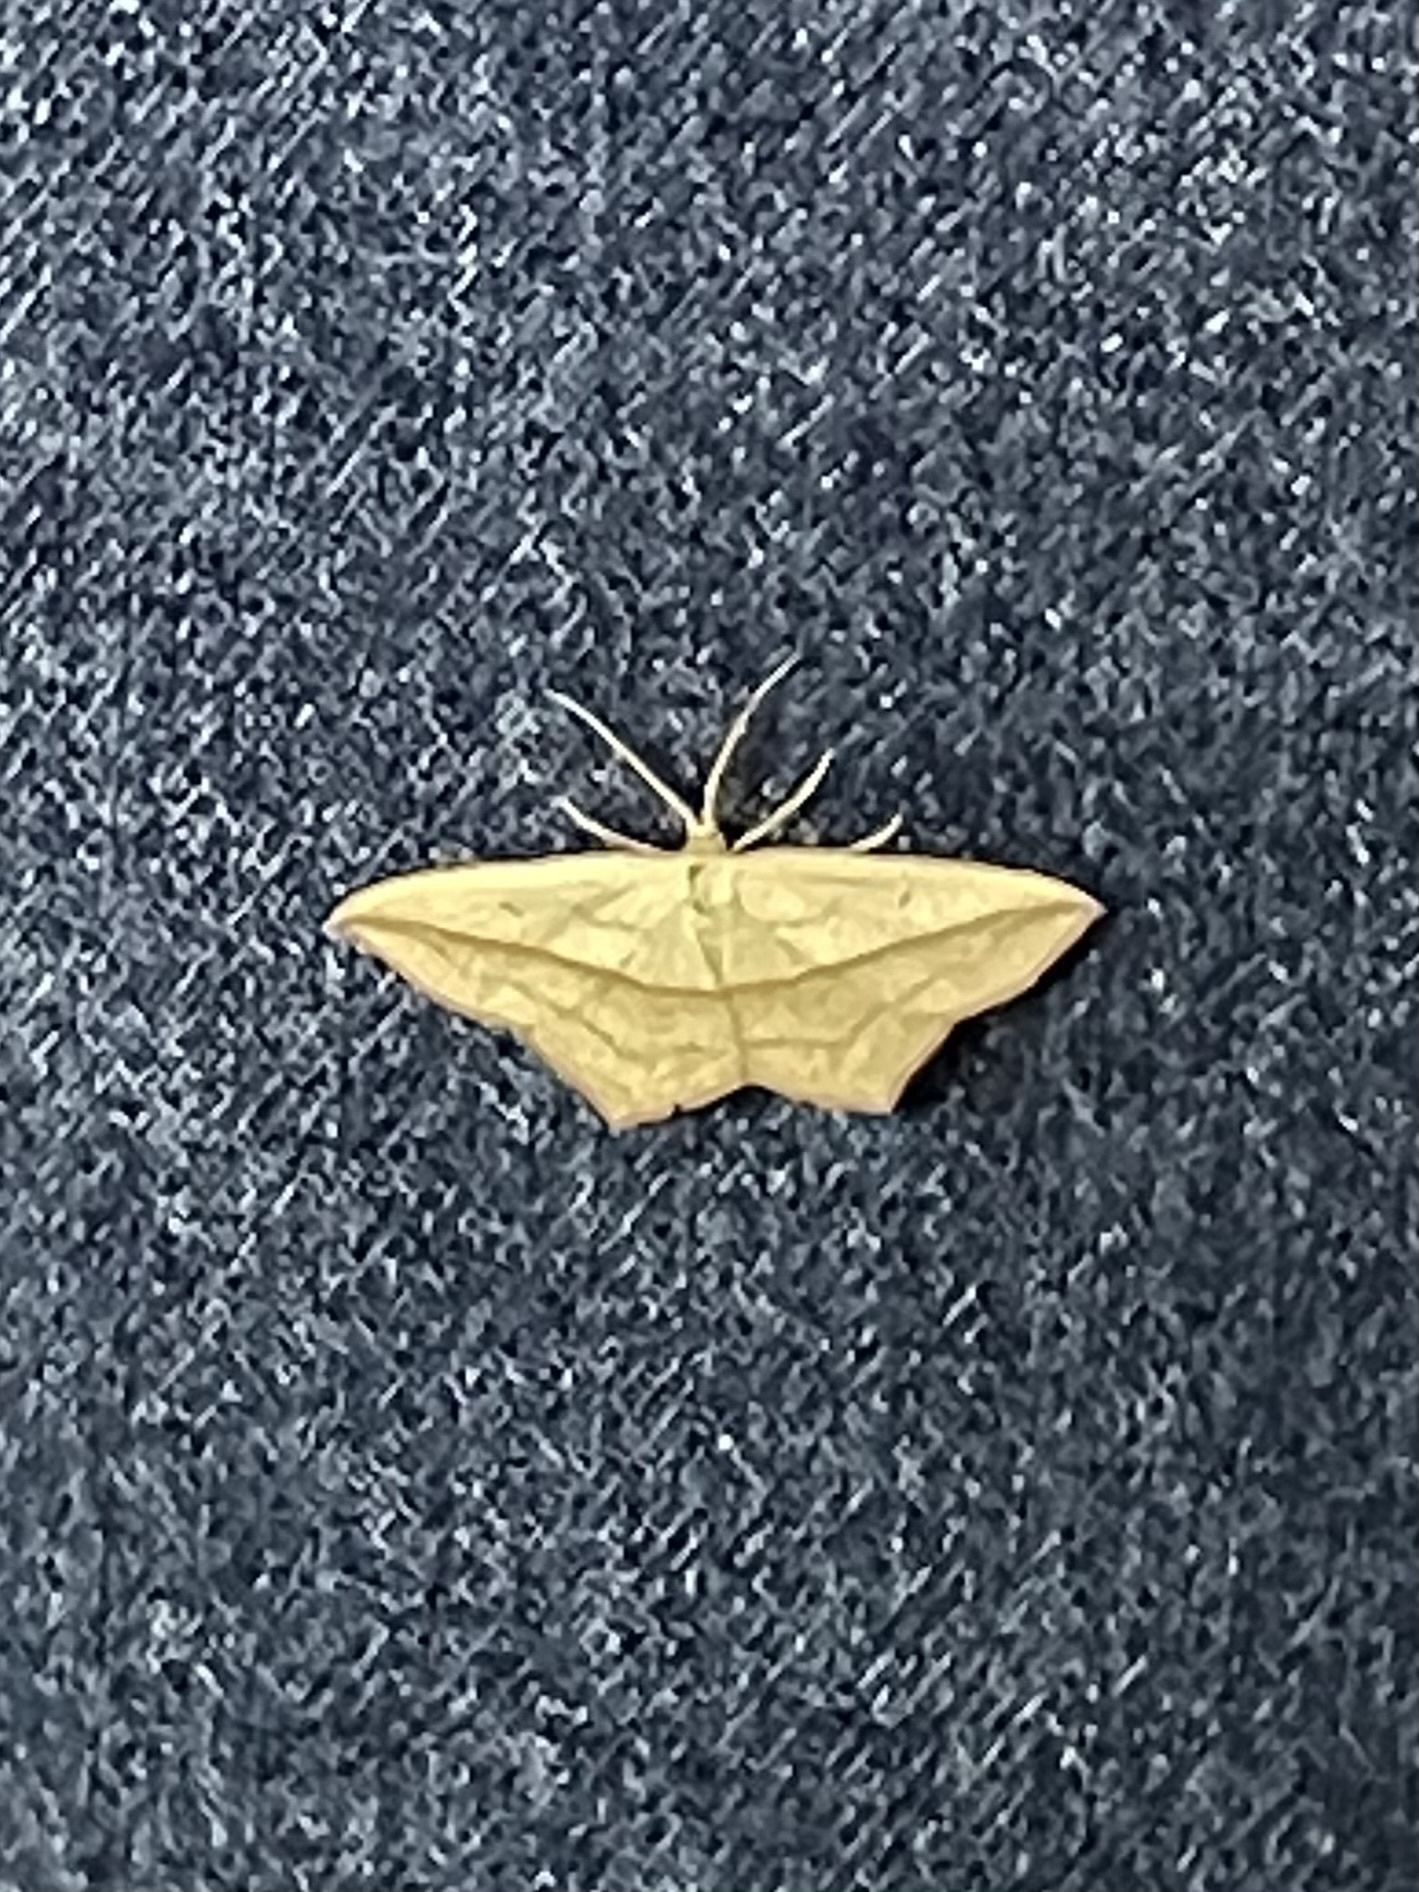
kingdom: Animalia
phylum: Arthropoda
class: Insecta
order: Lepidoptera
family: Geometridae
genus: Timandra
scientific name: Timandra comae
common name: Blood-vein
